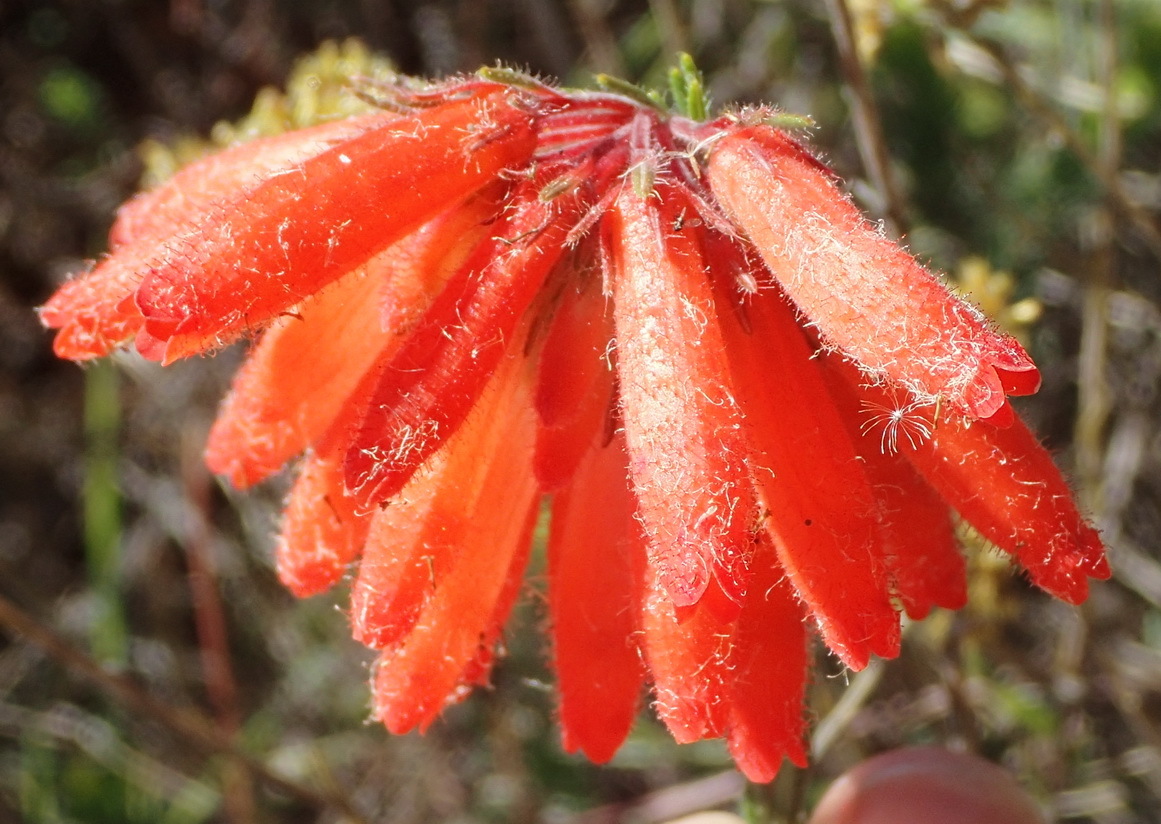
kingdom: Plantae
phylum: Tracheophyta
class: Magnoliopsida
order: Ericales
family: Ericaceae
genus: Erica
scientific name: Erica cerinthoides
